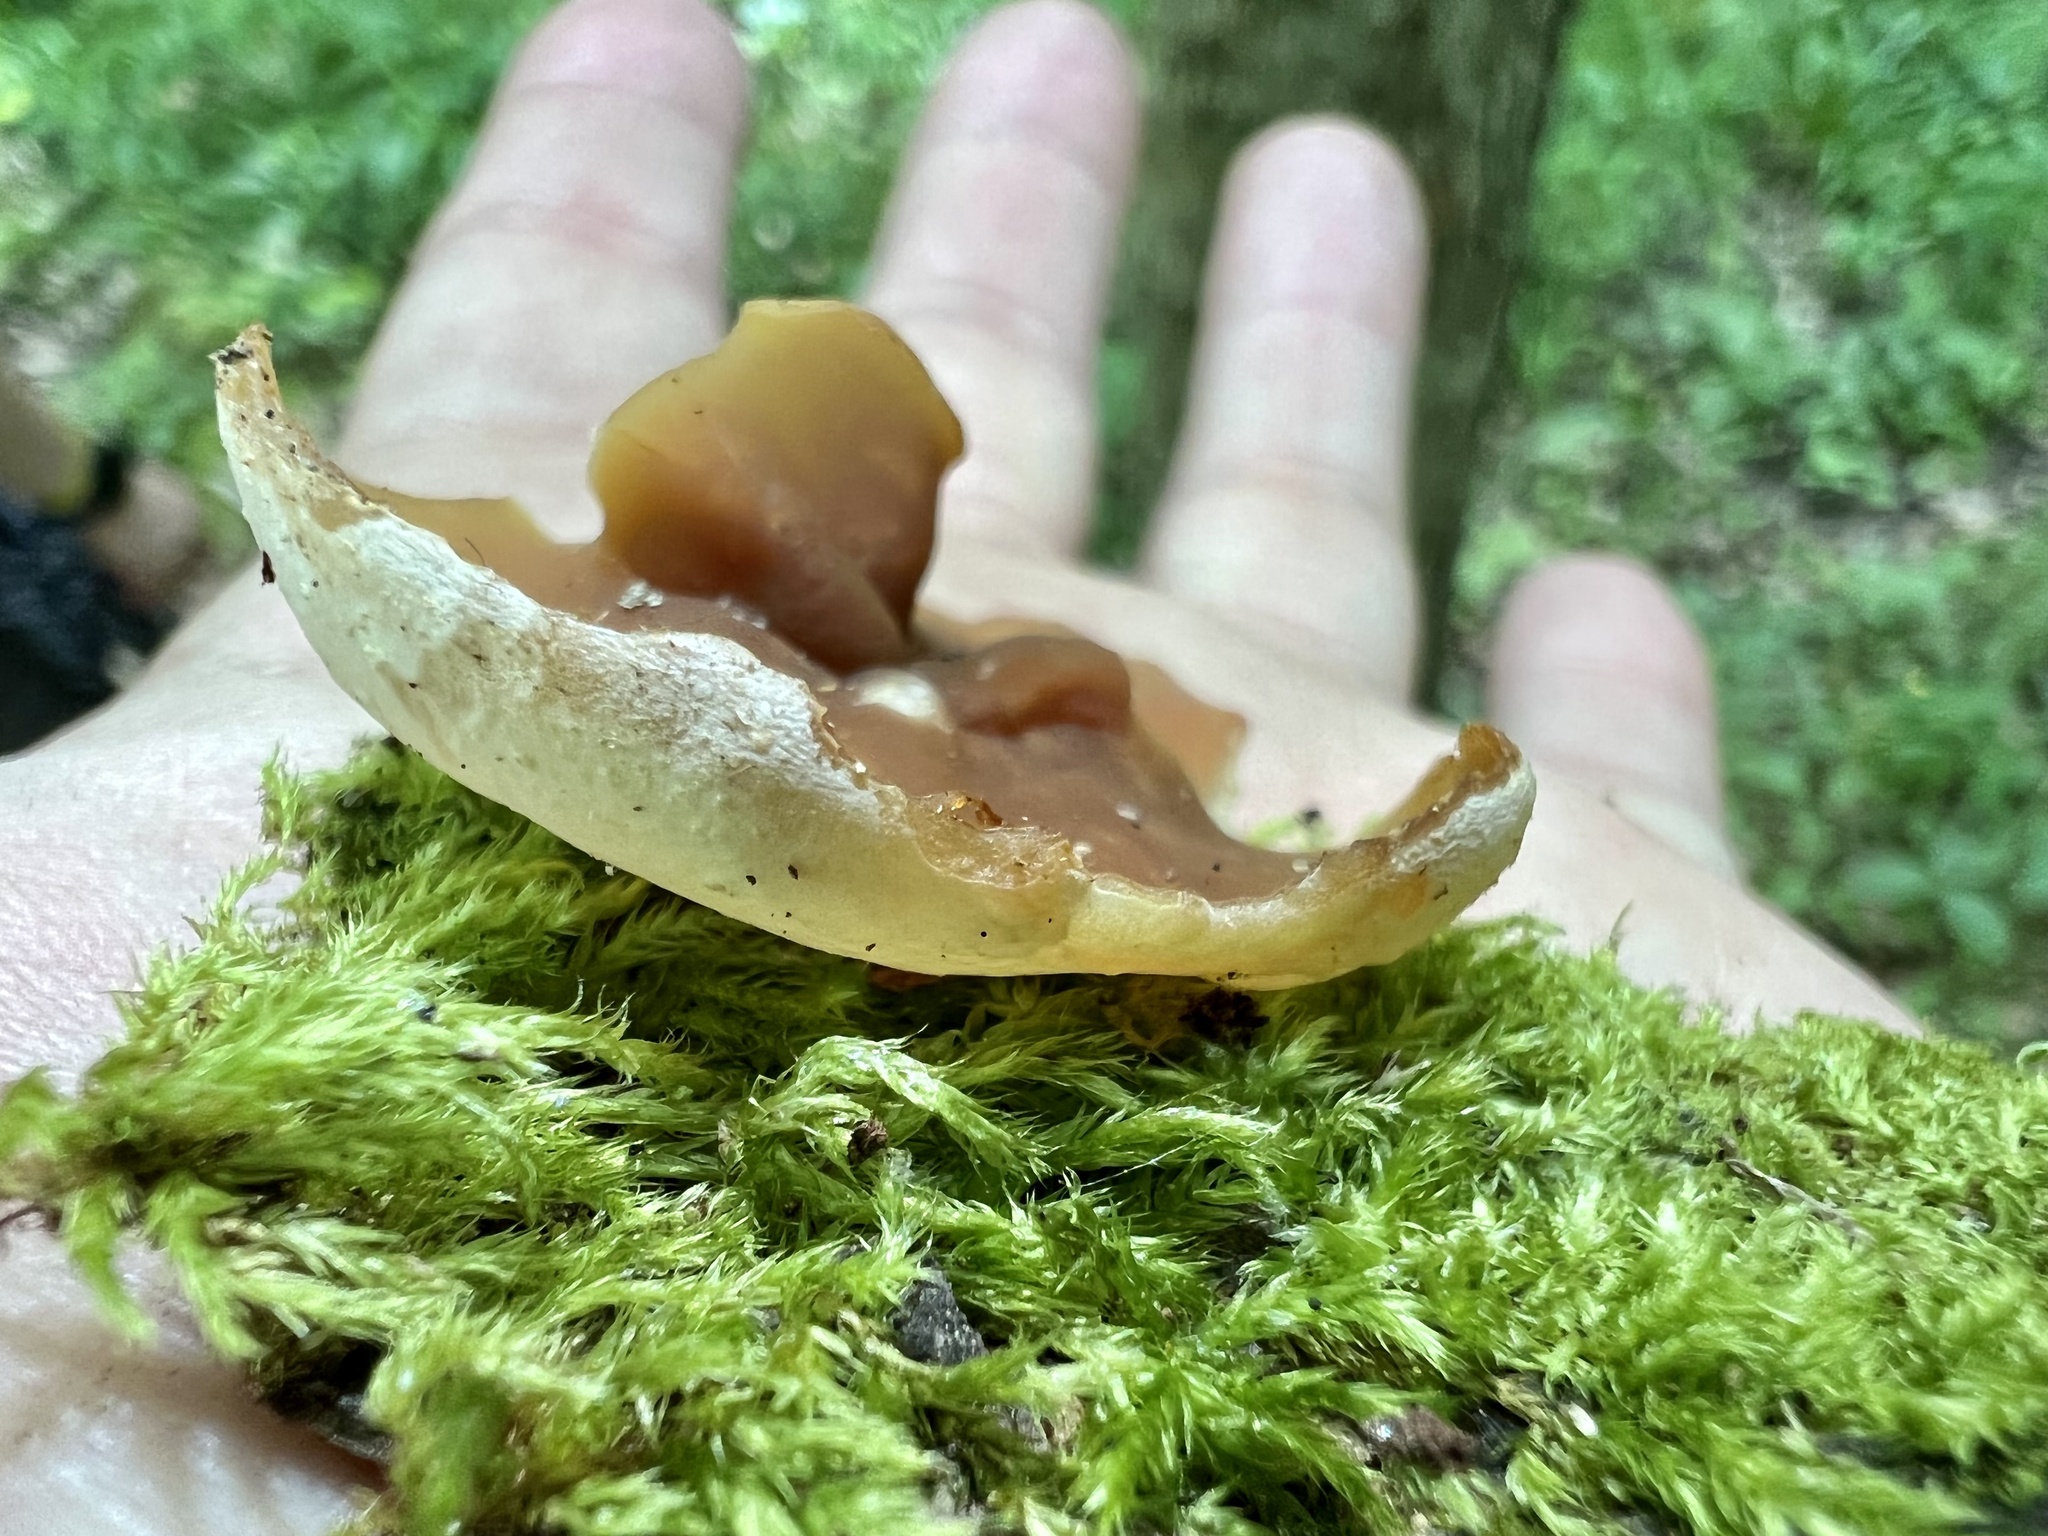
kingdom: Fungi
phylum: Ascomycota
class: Pezizomycetes
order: Pezizales
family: Pezizaceae
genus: Peziza
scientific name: Peziza varia
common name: Layered cup
